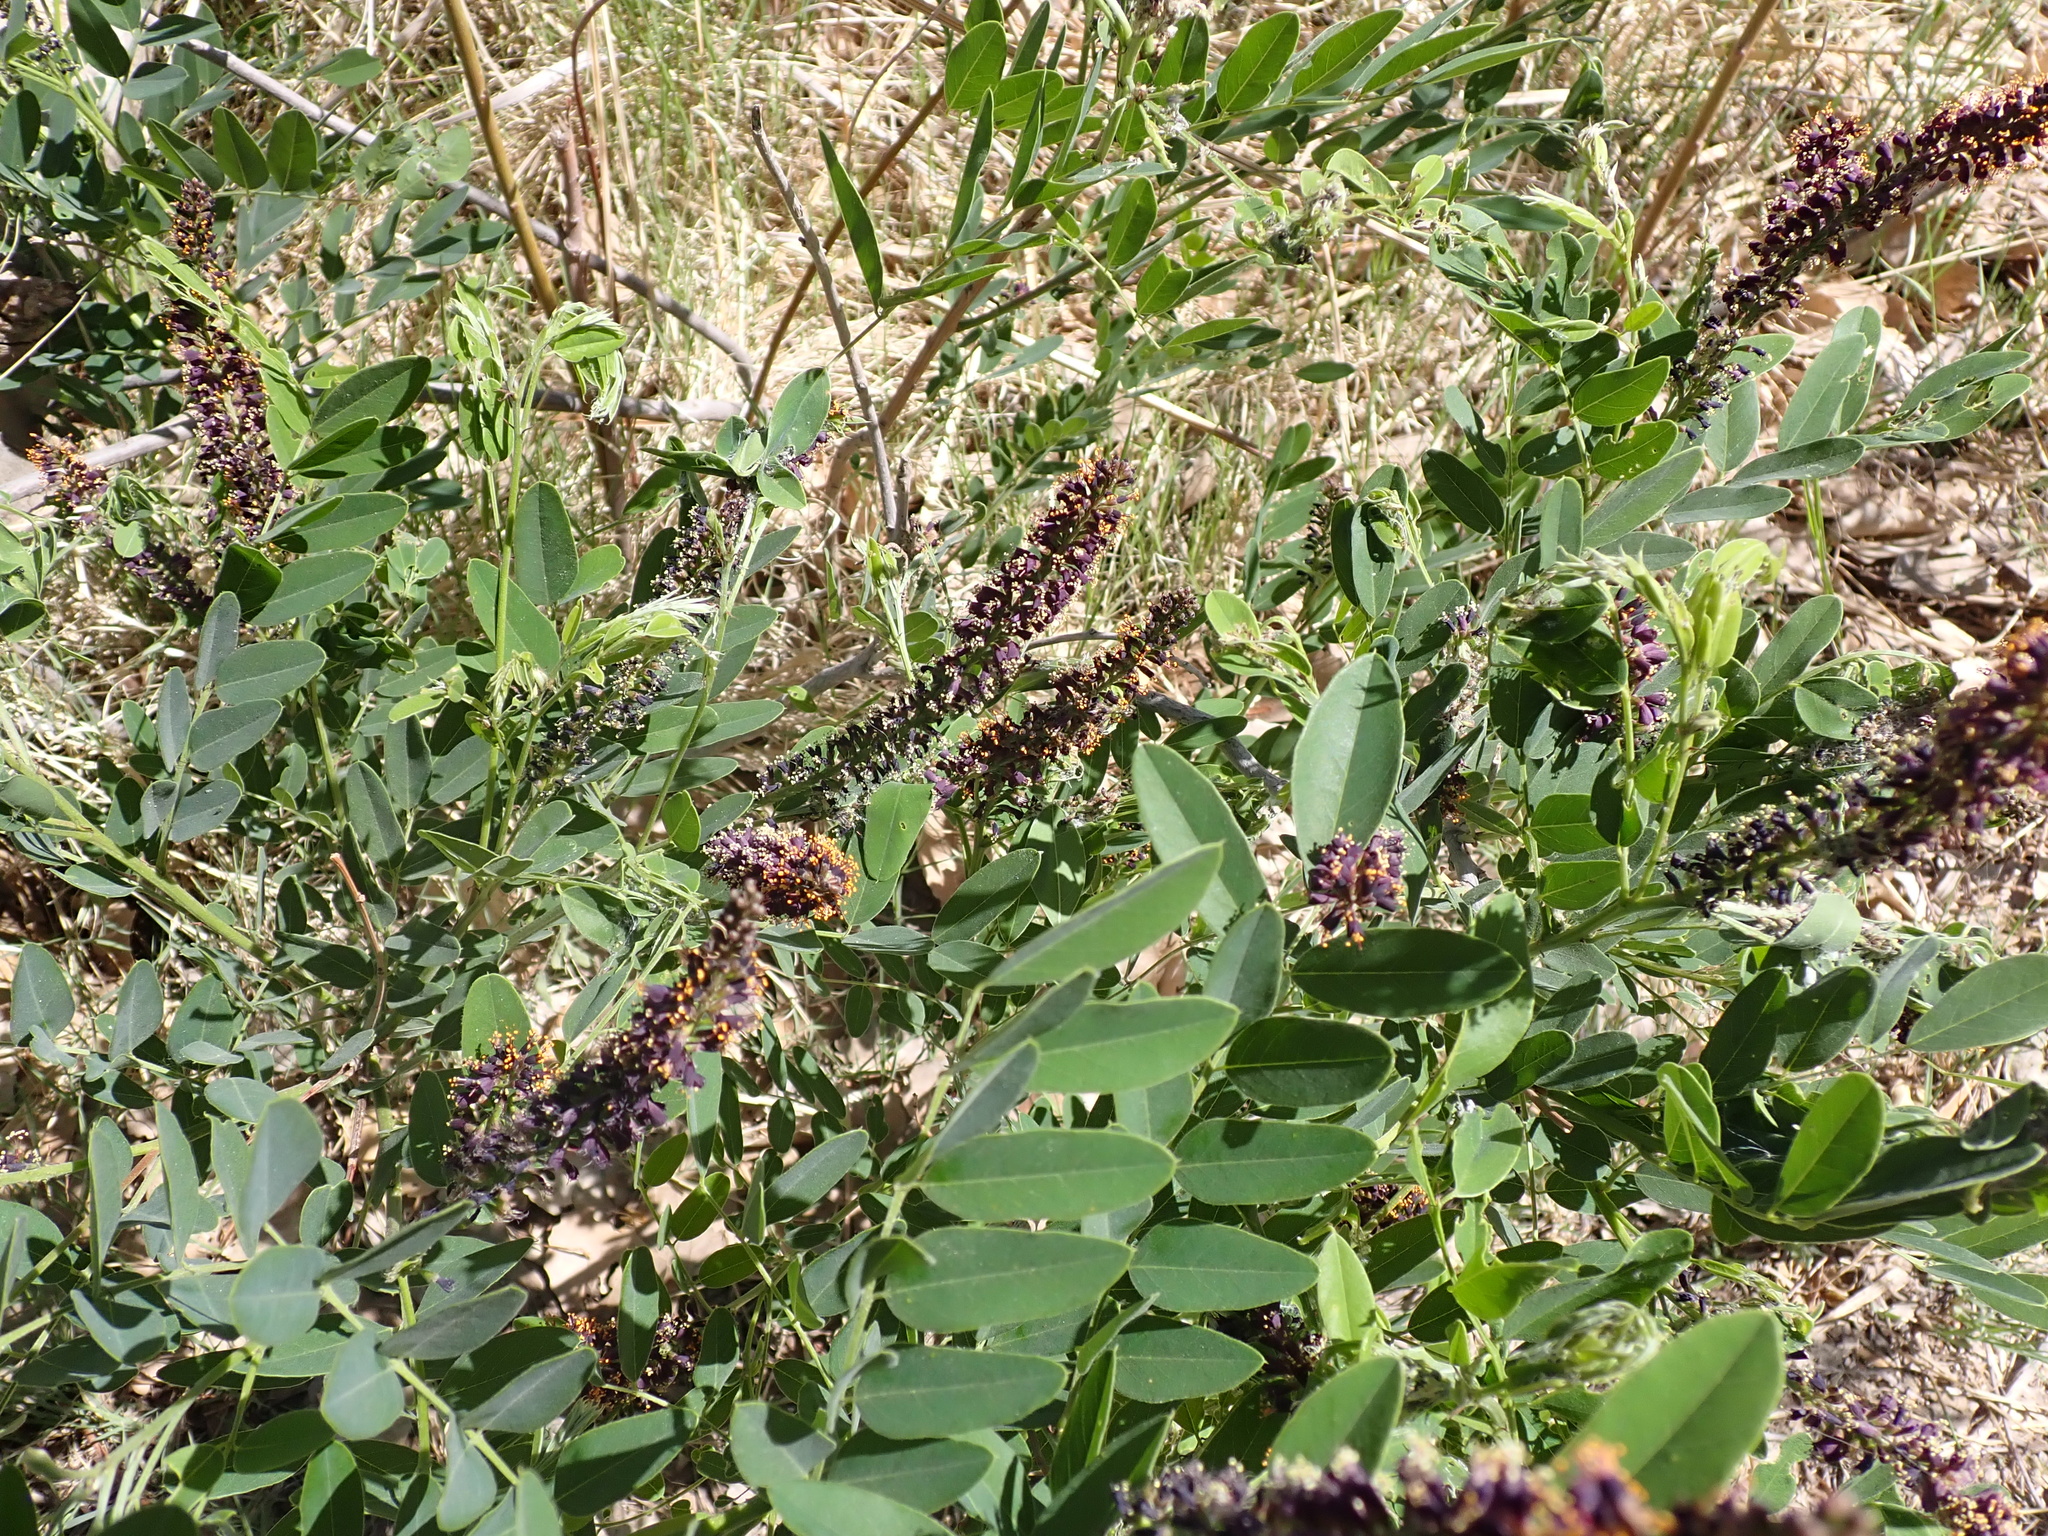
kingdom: Plantae
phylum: Tracheophyta
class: Magnoliopsida
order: Fabales
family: Fabaceae
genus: Amorpha
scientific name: Amorpha fruticosa
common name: False indigo
